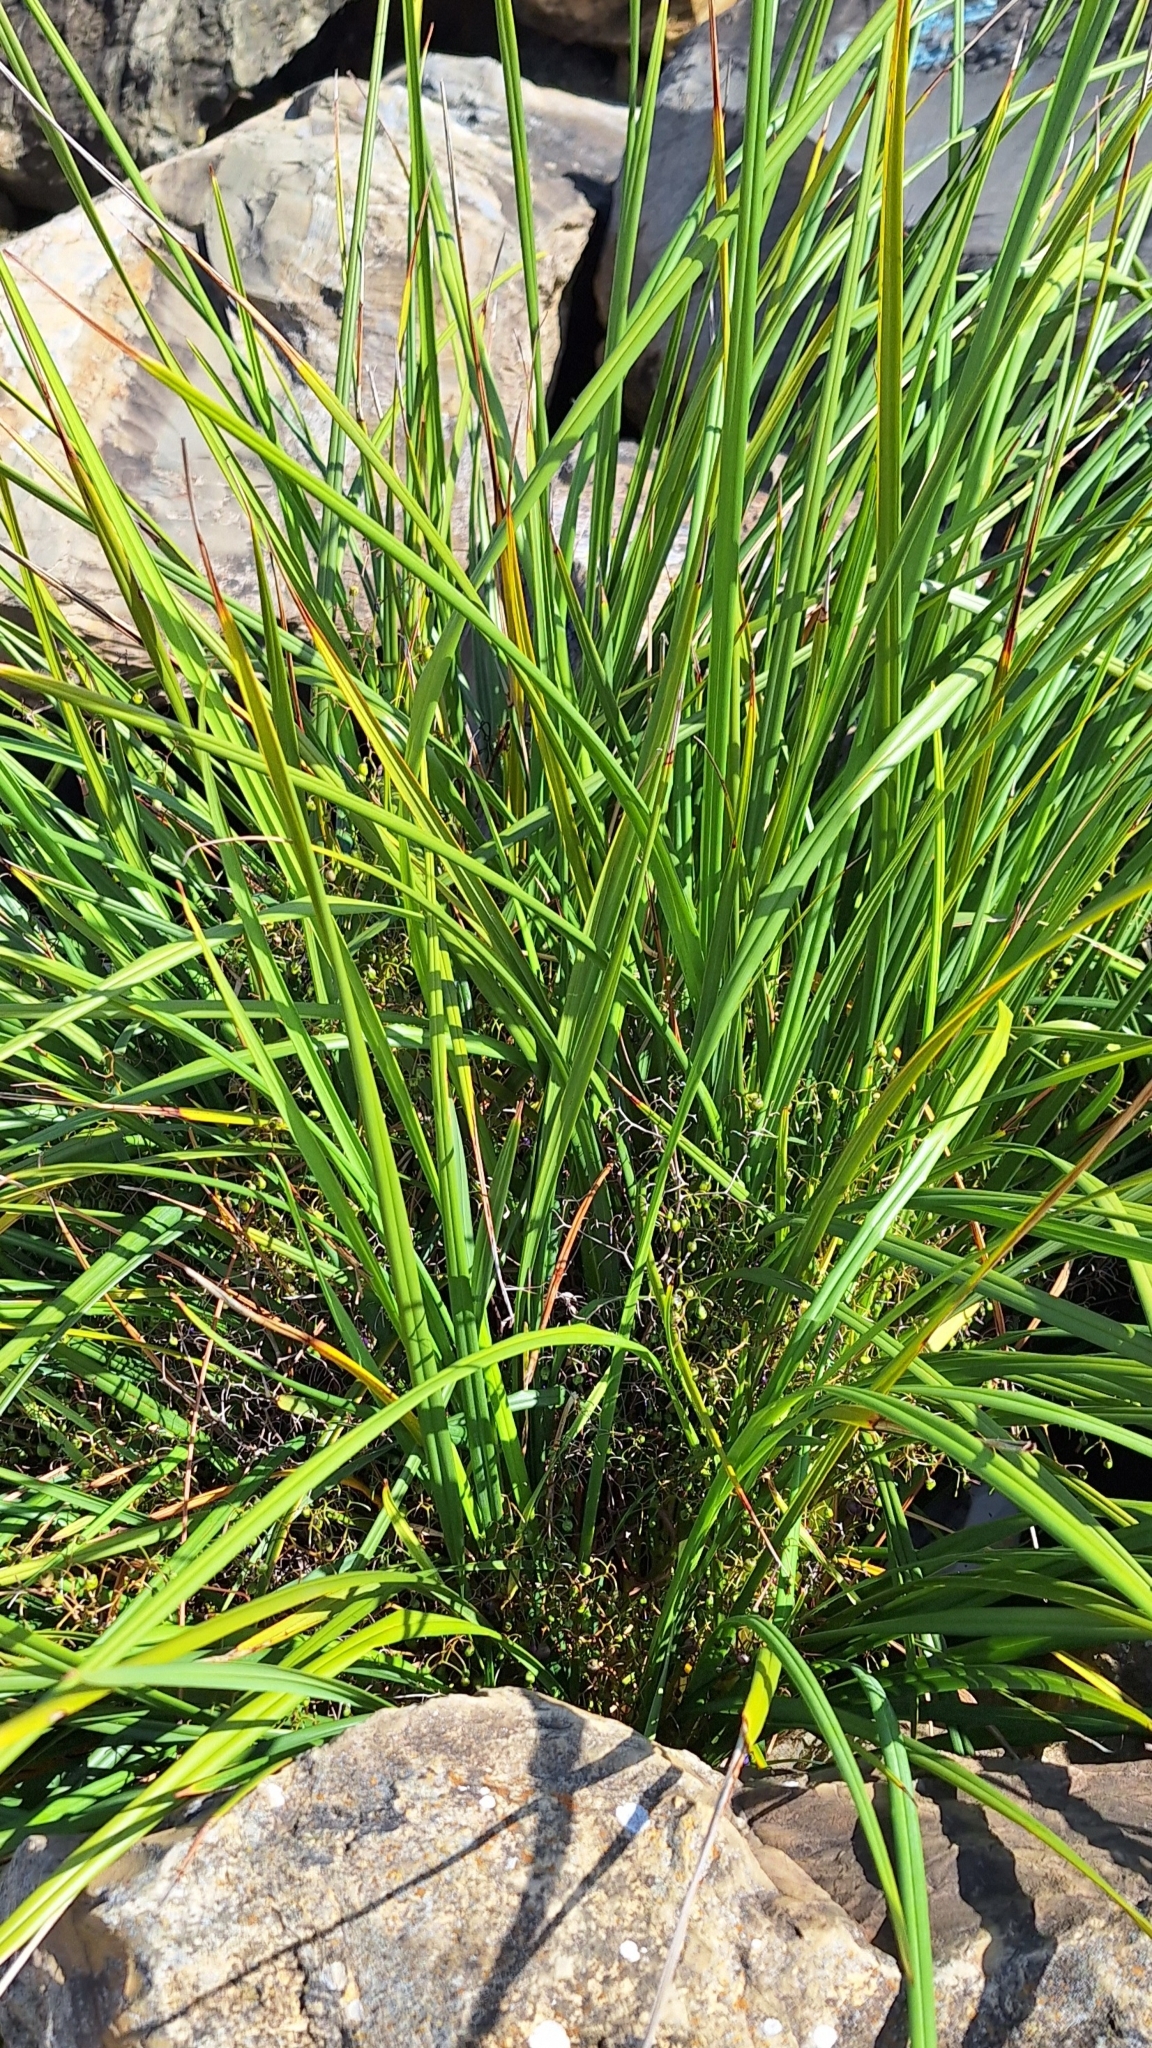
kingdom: Plantae
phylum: Tracheophyta
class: Liliopsida
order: Asparagales
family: Asphodelaceae
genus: Dianella
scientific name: Dianella brevicaulis
